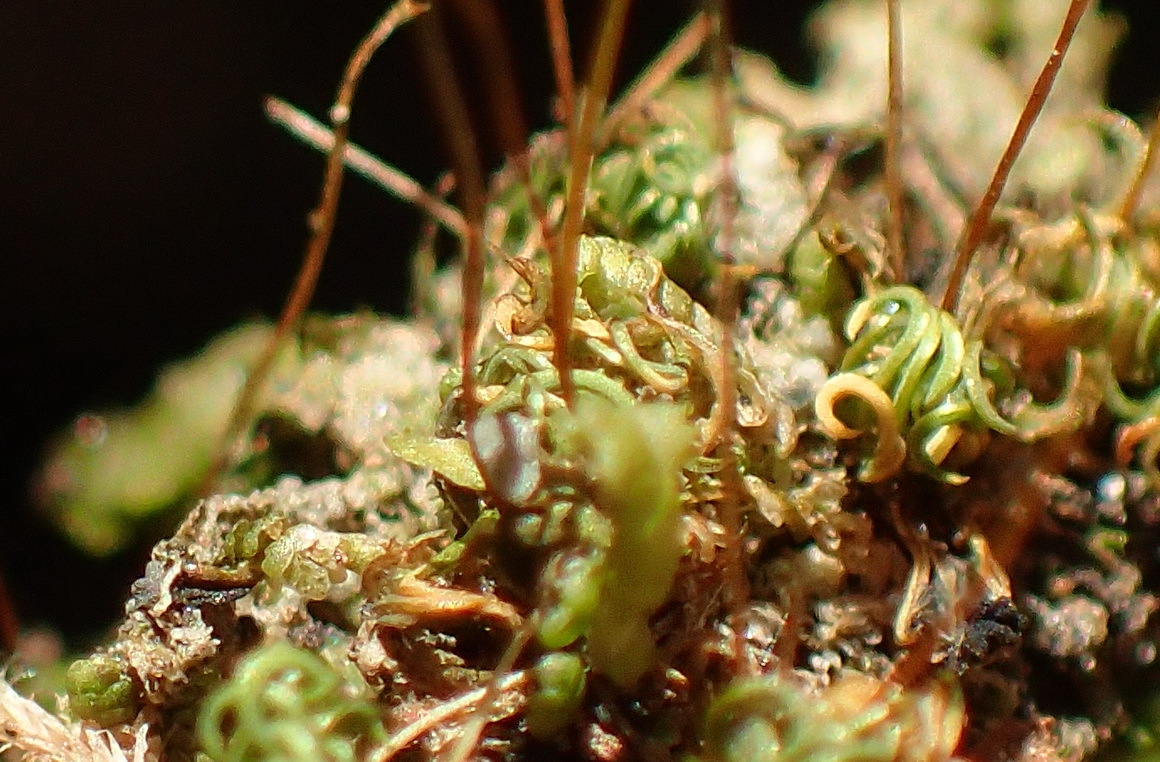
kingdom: Plantae
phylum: Bryophyta
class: Bryopsida
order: Pottiales
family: Pottiaceae
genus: Tortella
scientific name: Tortella humilis
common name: Small twisted moss
